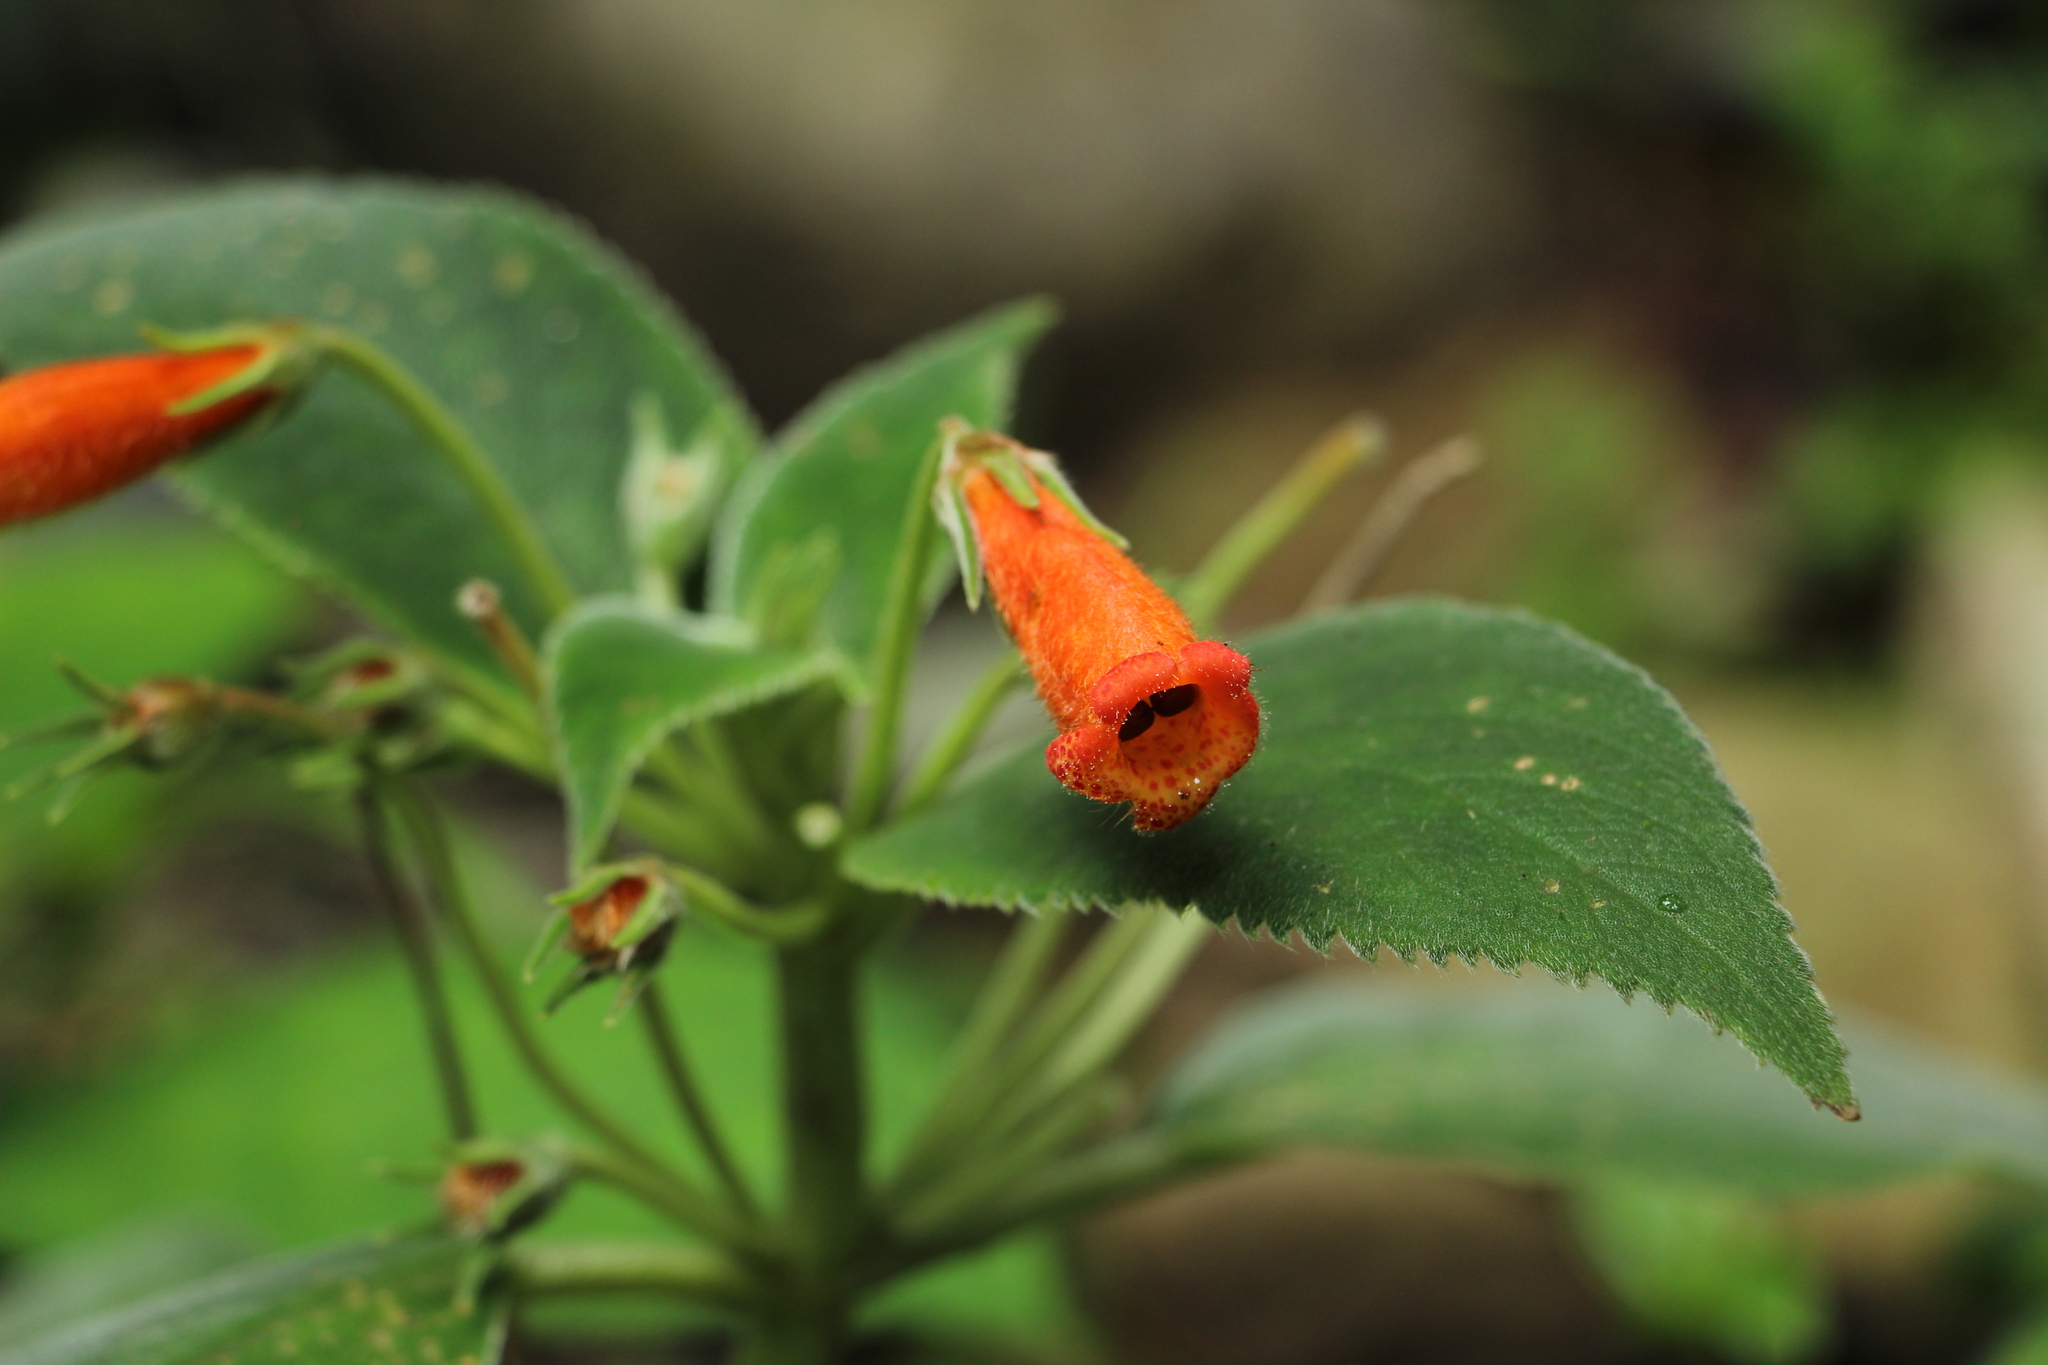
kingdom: Plantae
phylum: Tracheophyta
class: Magnoliopsida
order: Lamiales
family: Gesneriaceae
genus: Kohleria
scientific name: Kohleria hirsuta
